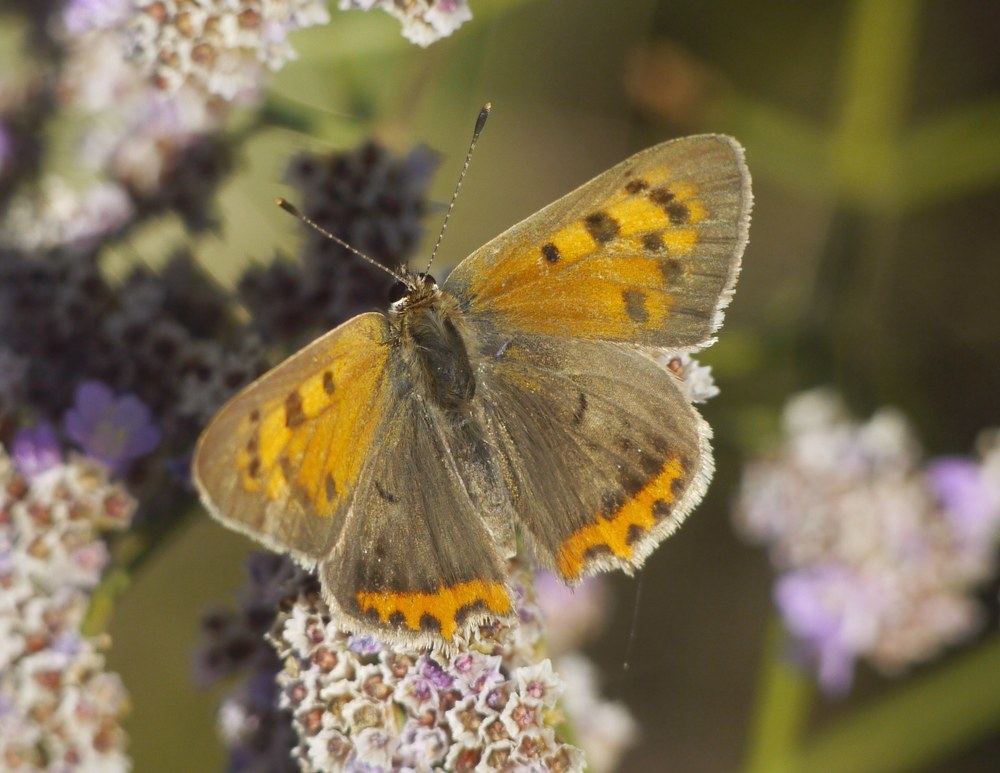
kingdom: Animalia
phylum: Arthropoda
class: Insecta
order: Lepidoptera
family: Lycaenidae
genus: Lycaena
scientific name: Lycaena phlaeas
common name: Small copper
